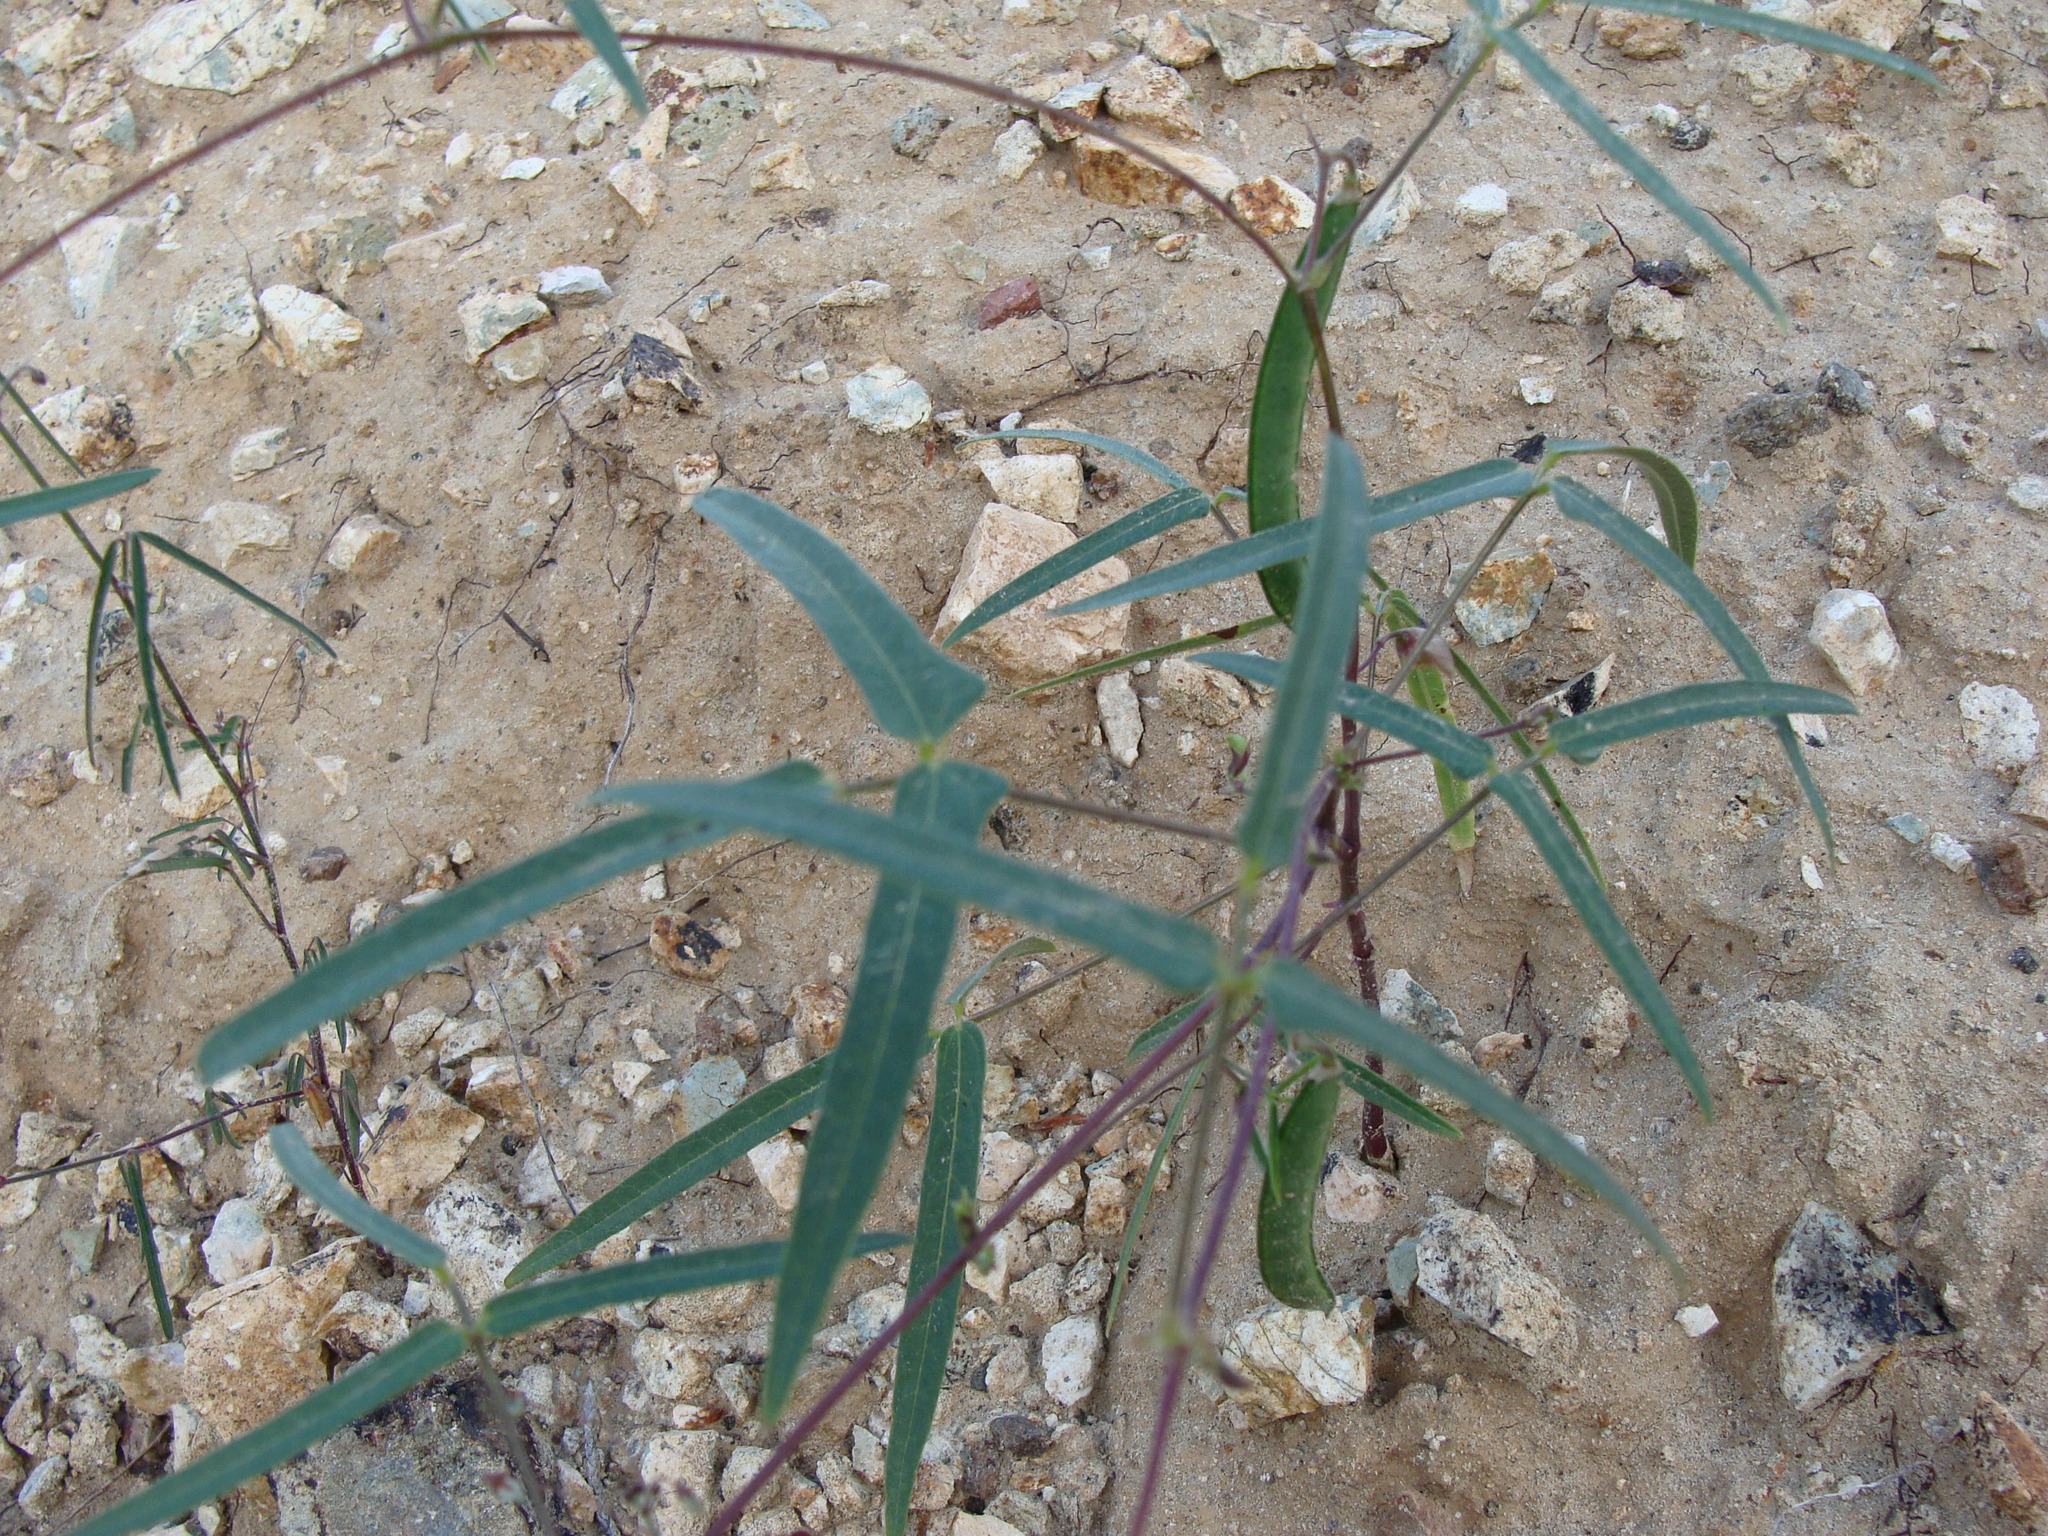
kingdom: Plantae
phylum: Tracheophyta
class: Magnoliopsida
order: Fabales
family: Fabaceae
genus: Phaseolus
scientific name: Phaseolus parvulus
